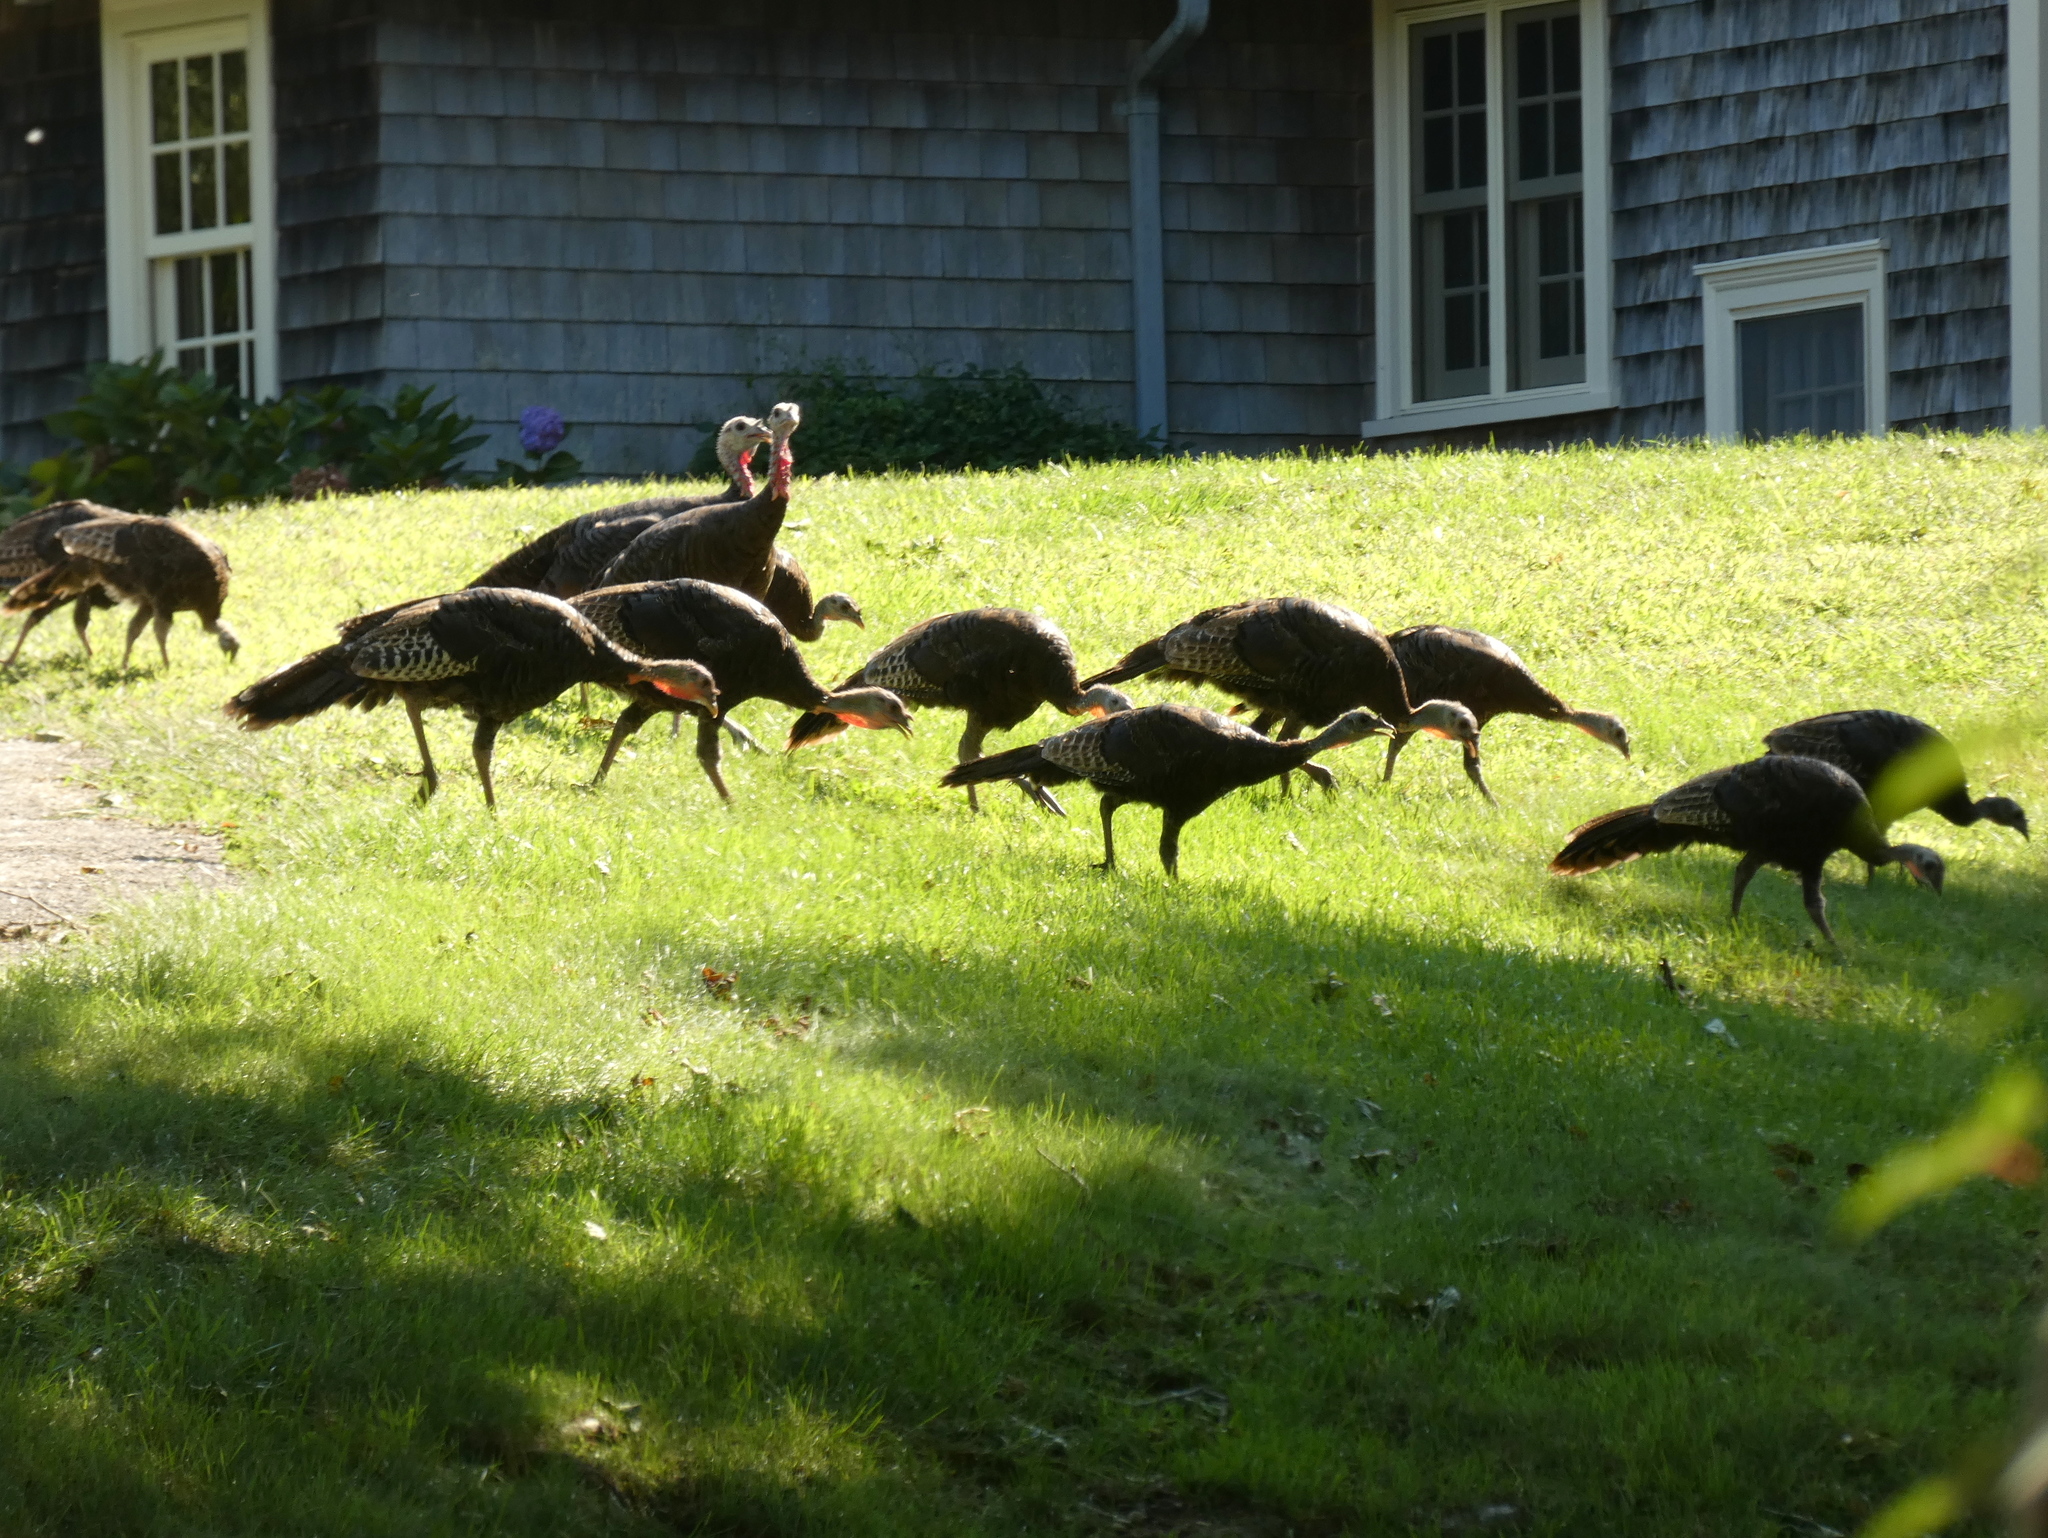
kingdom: Animalia
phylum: Chordata
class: Aves
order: Galliformes
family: Phasianidae
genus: Meleagris
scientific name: Meleagris gallopavo
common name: Wild turkey
